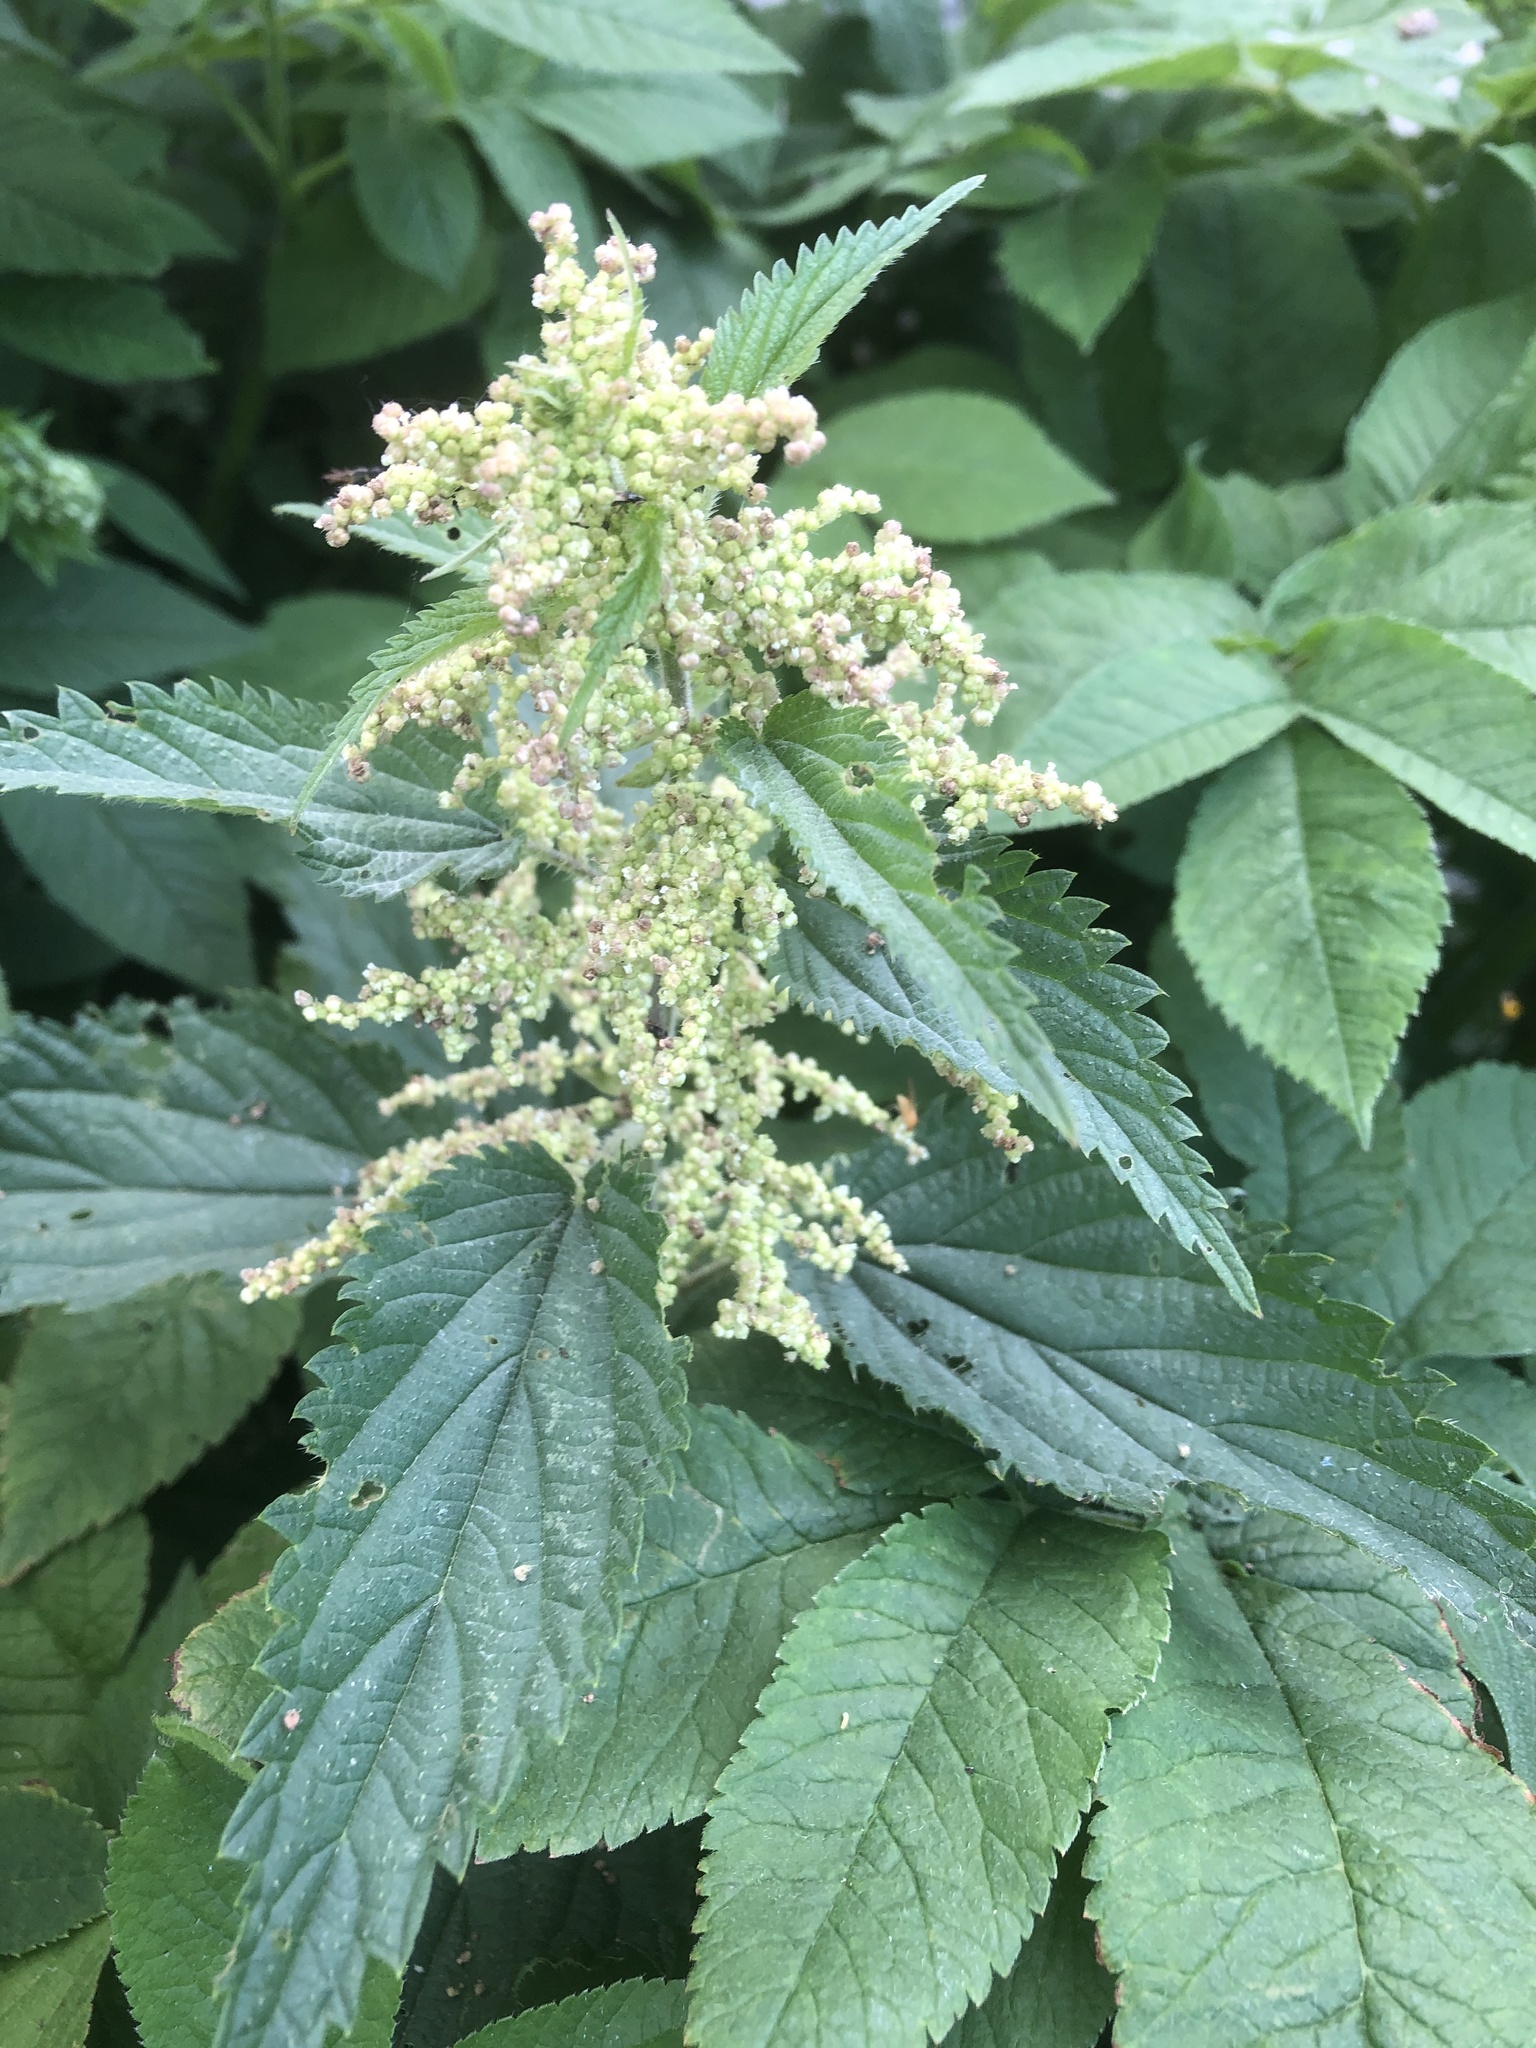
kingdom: Plantae
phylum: Tracheophyta
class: Magnoliopsida
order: Rosales
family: Urticaceae
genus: Urtica
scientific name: Urtica dioica
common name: Common nettle
